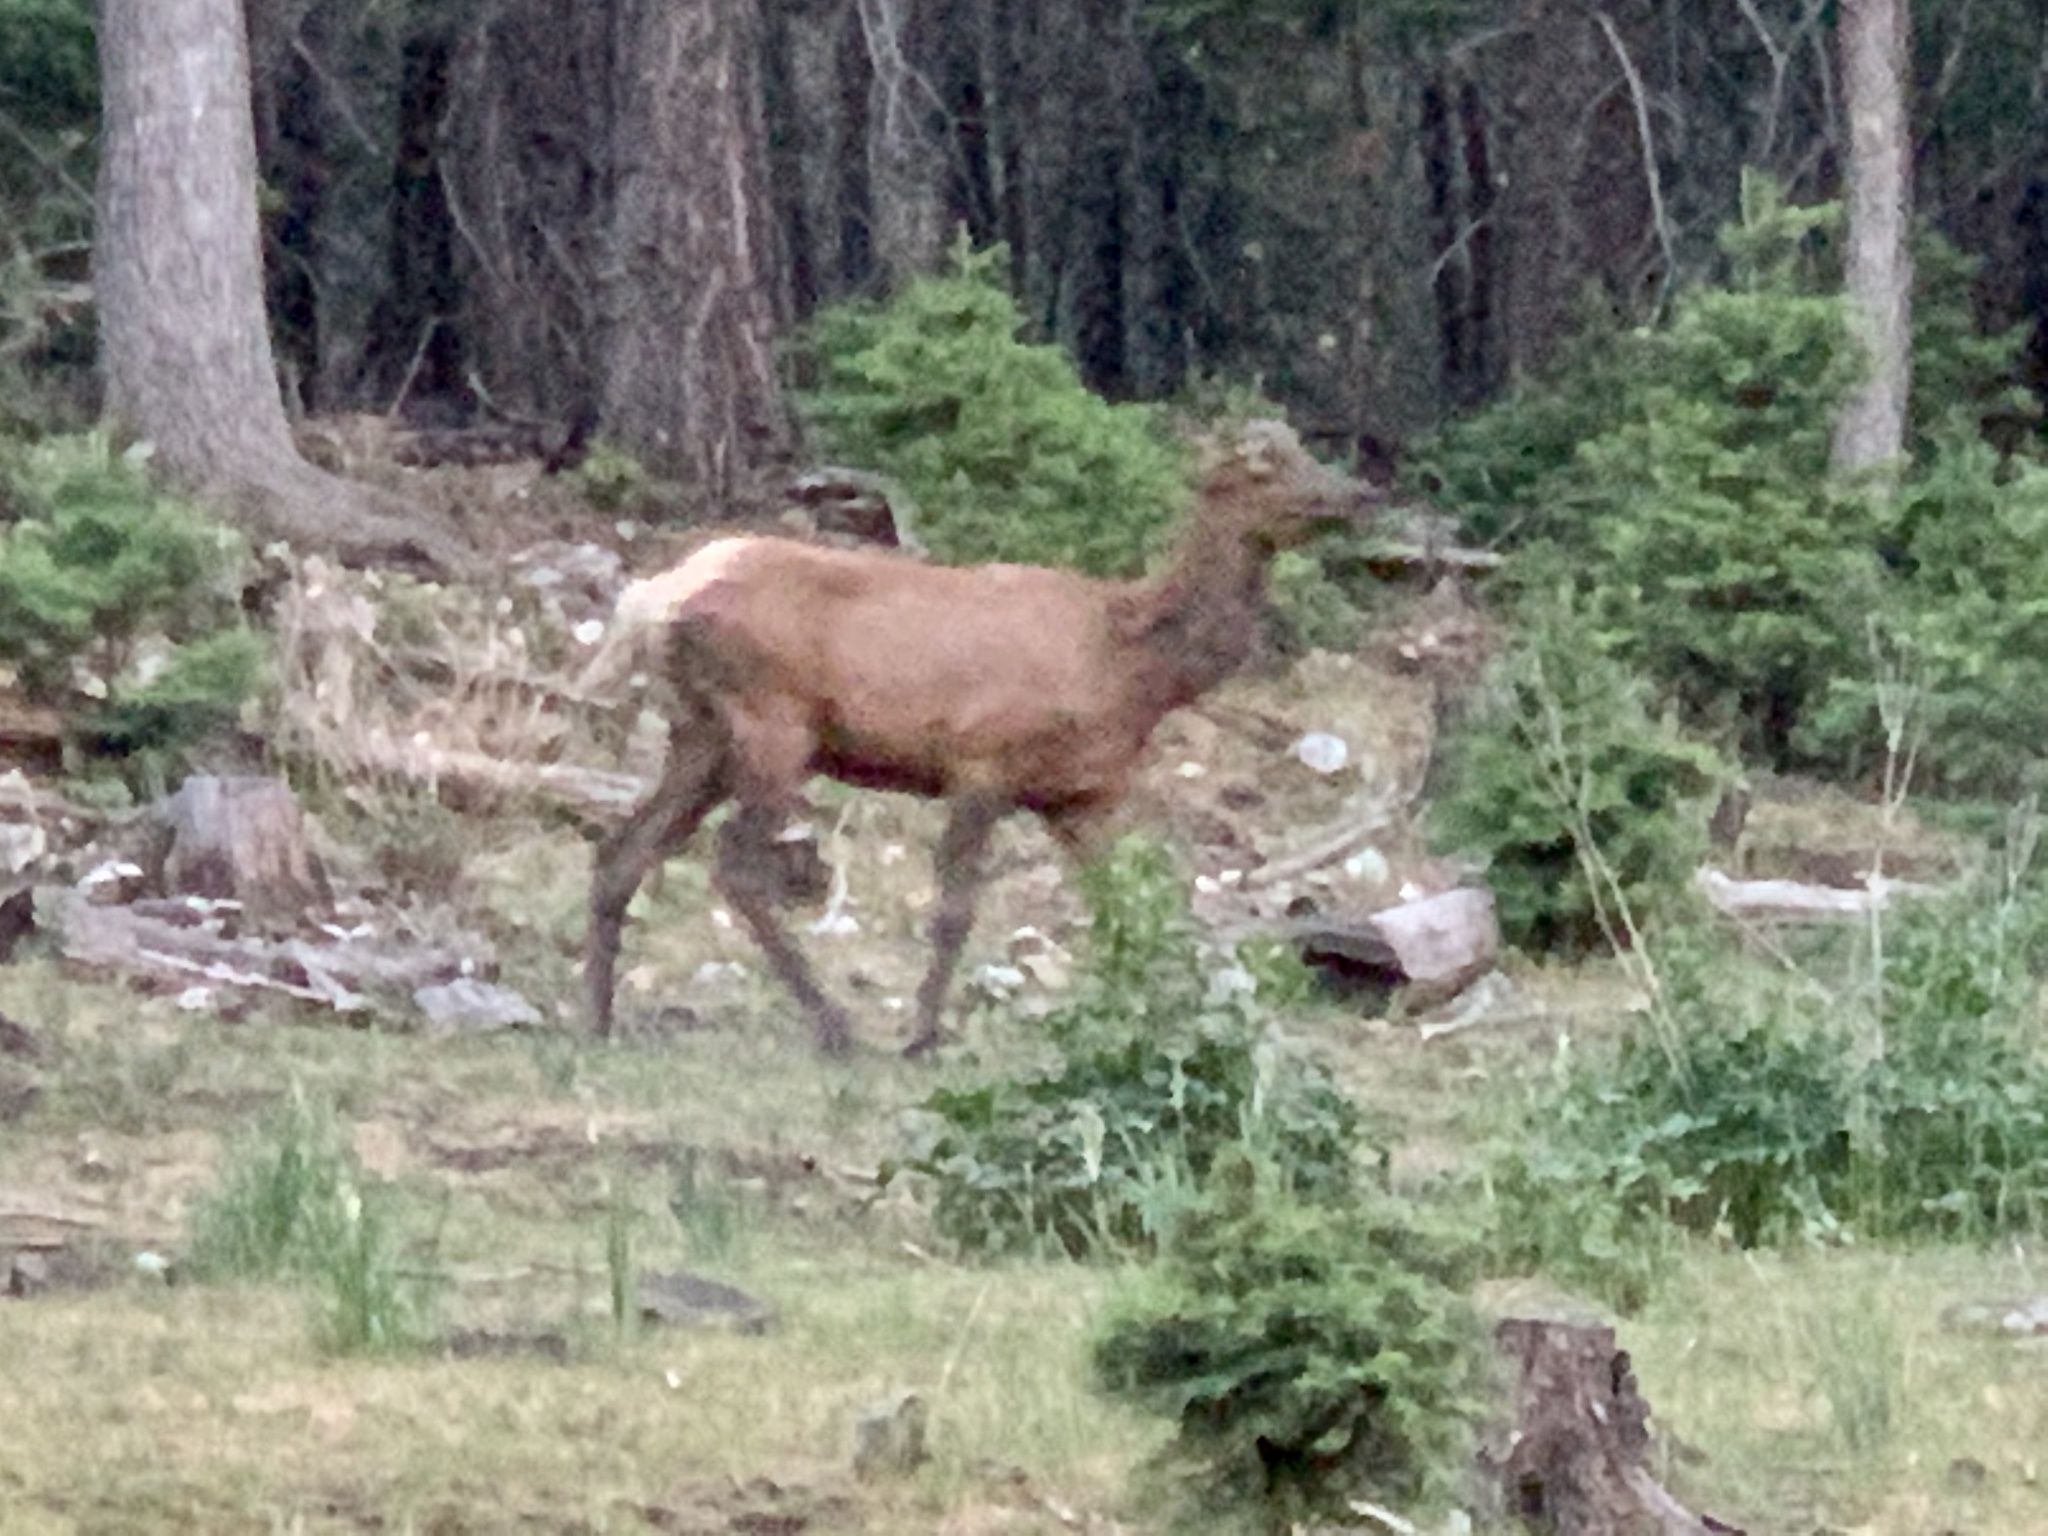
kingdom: Animalia
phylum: Chordata
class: Mammalia
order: Artiodactyla
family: Cervidae
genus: Cervus
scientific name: Cervus elaphus
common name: Red deer
